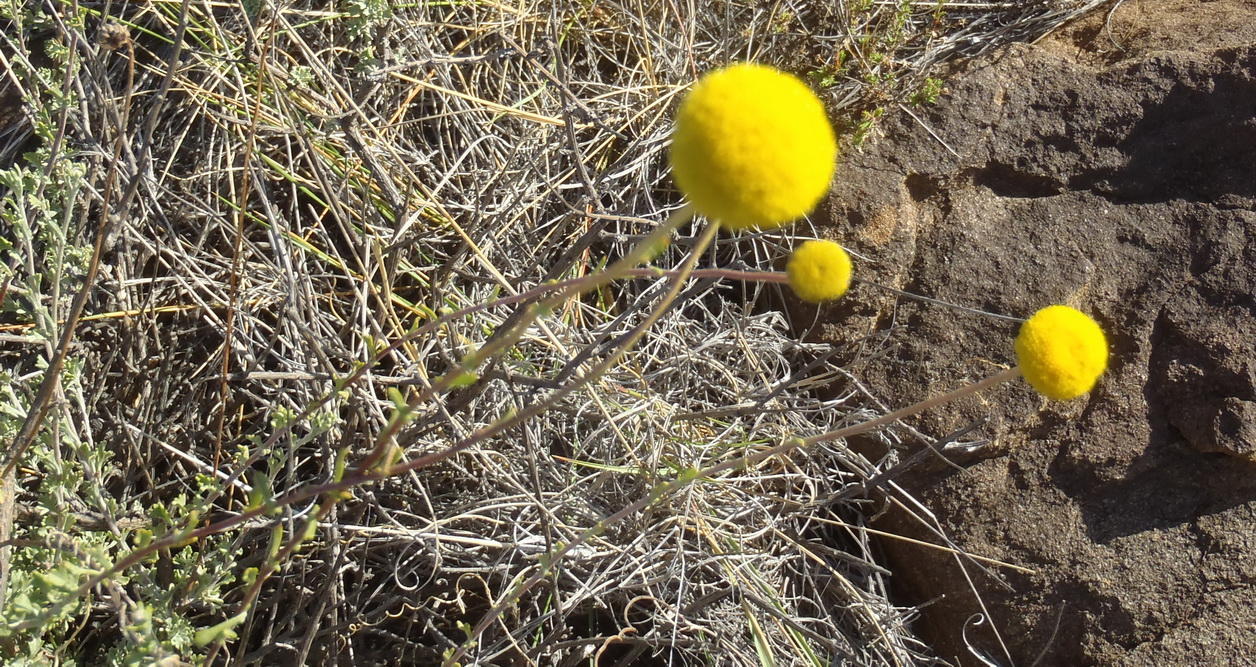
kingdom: Plantae
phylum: Tracheophyta
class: Magnoliopsida
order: Asterales
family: Asteraceae
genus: Pentzia
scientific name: Pentzia incana
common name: African sheepbush
